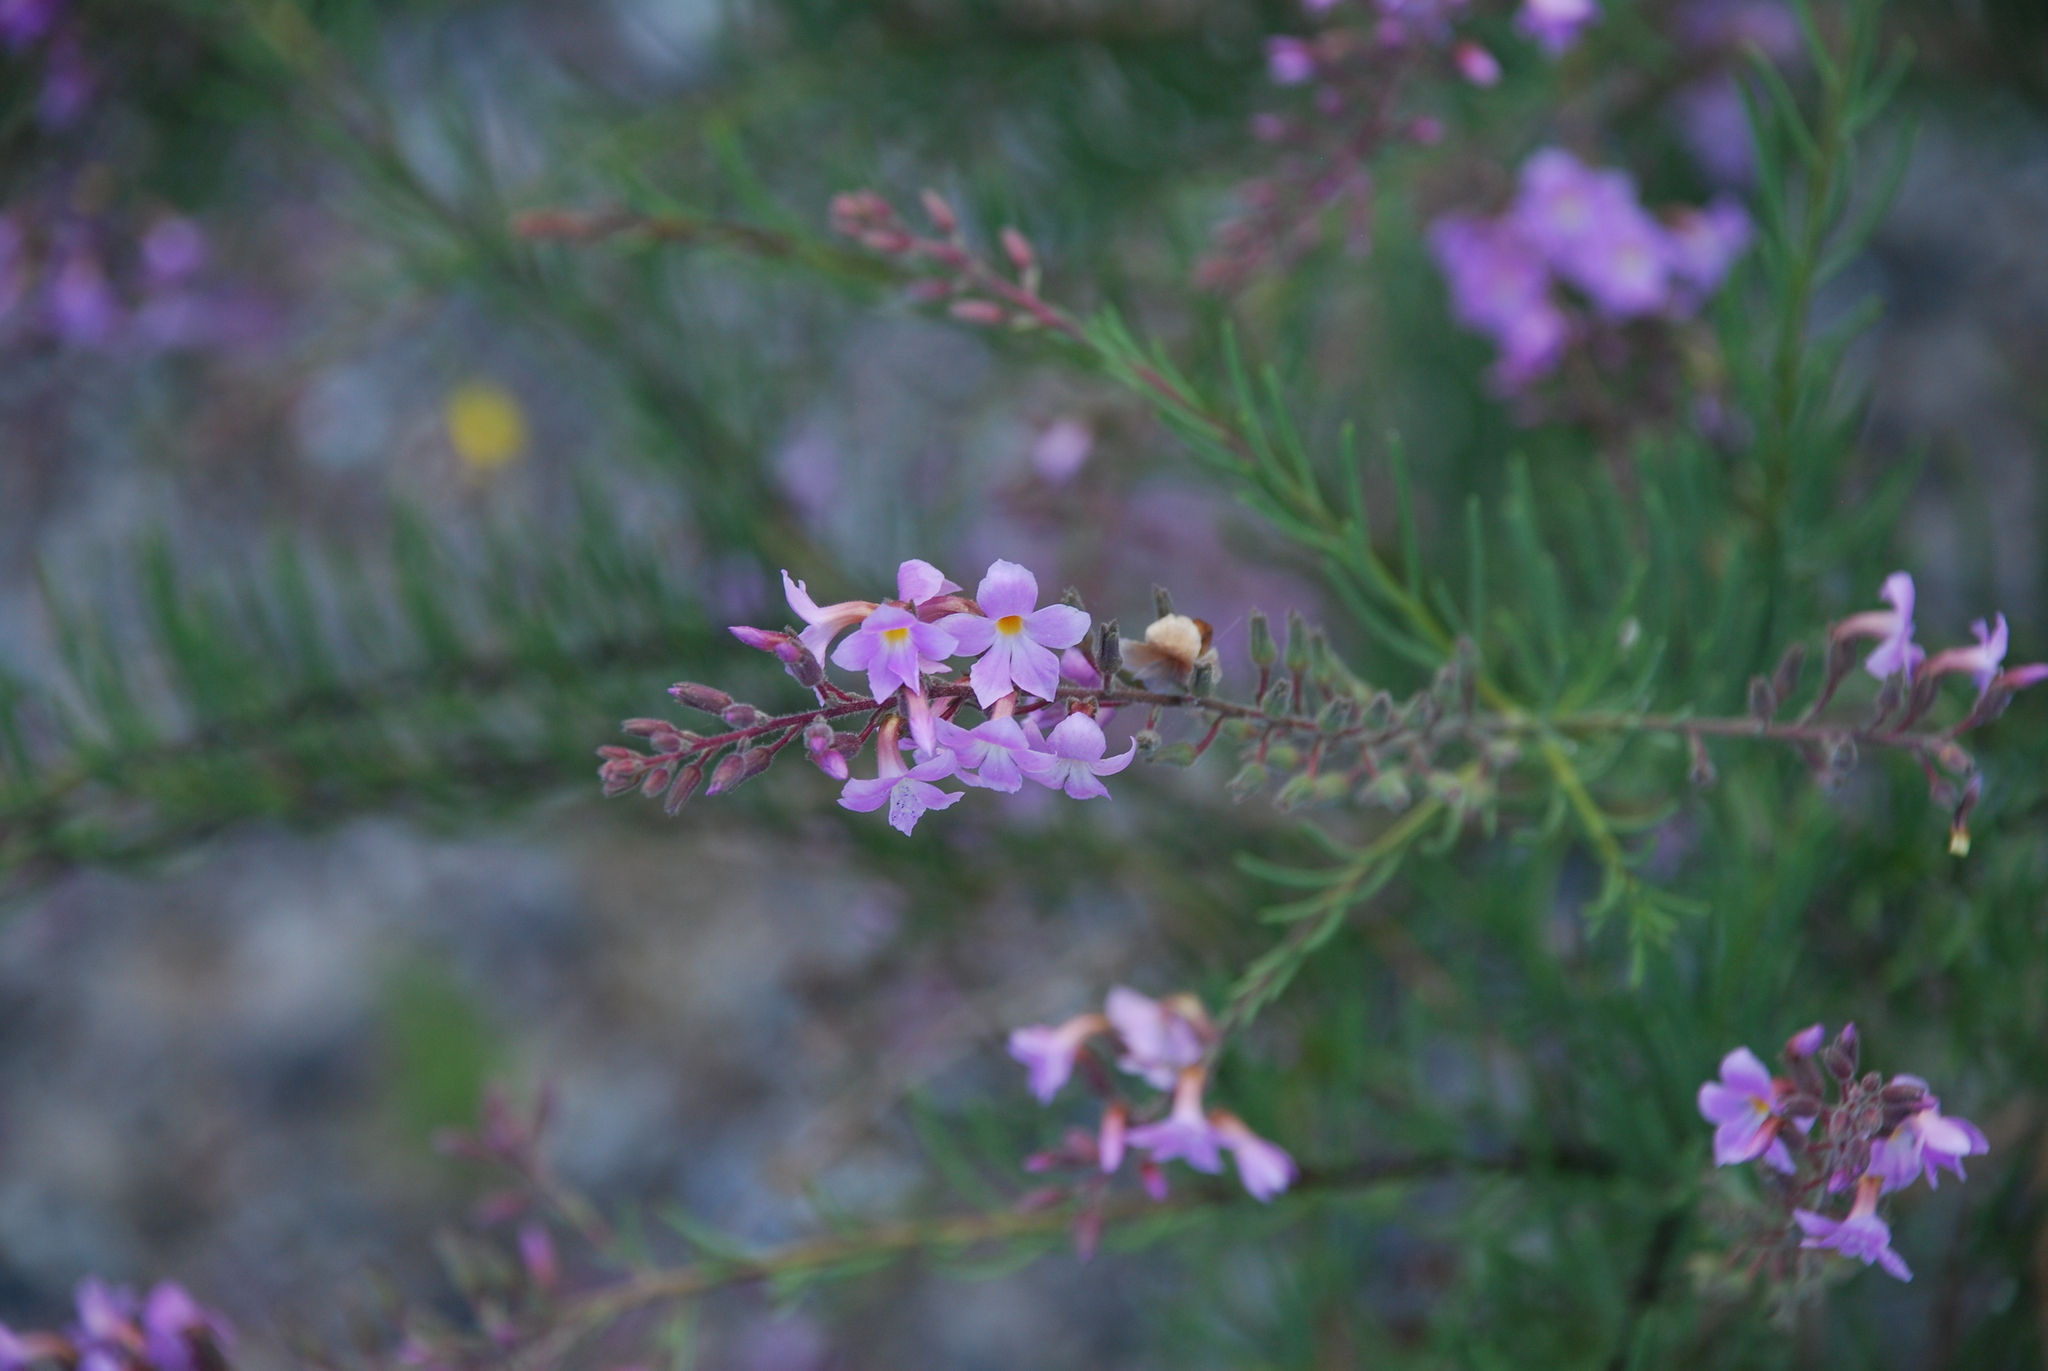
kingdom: Plantae
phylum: Tracheophyta
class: Magnoliopsida
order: Lamiales
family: Plantaginaceae
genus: Campylanthus
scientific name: Campylanthus salsoloides
